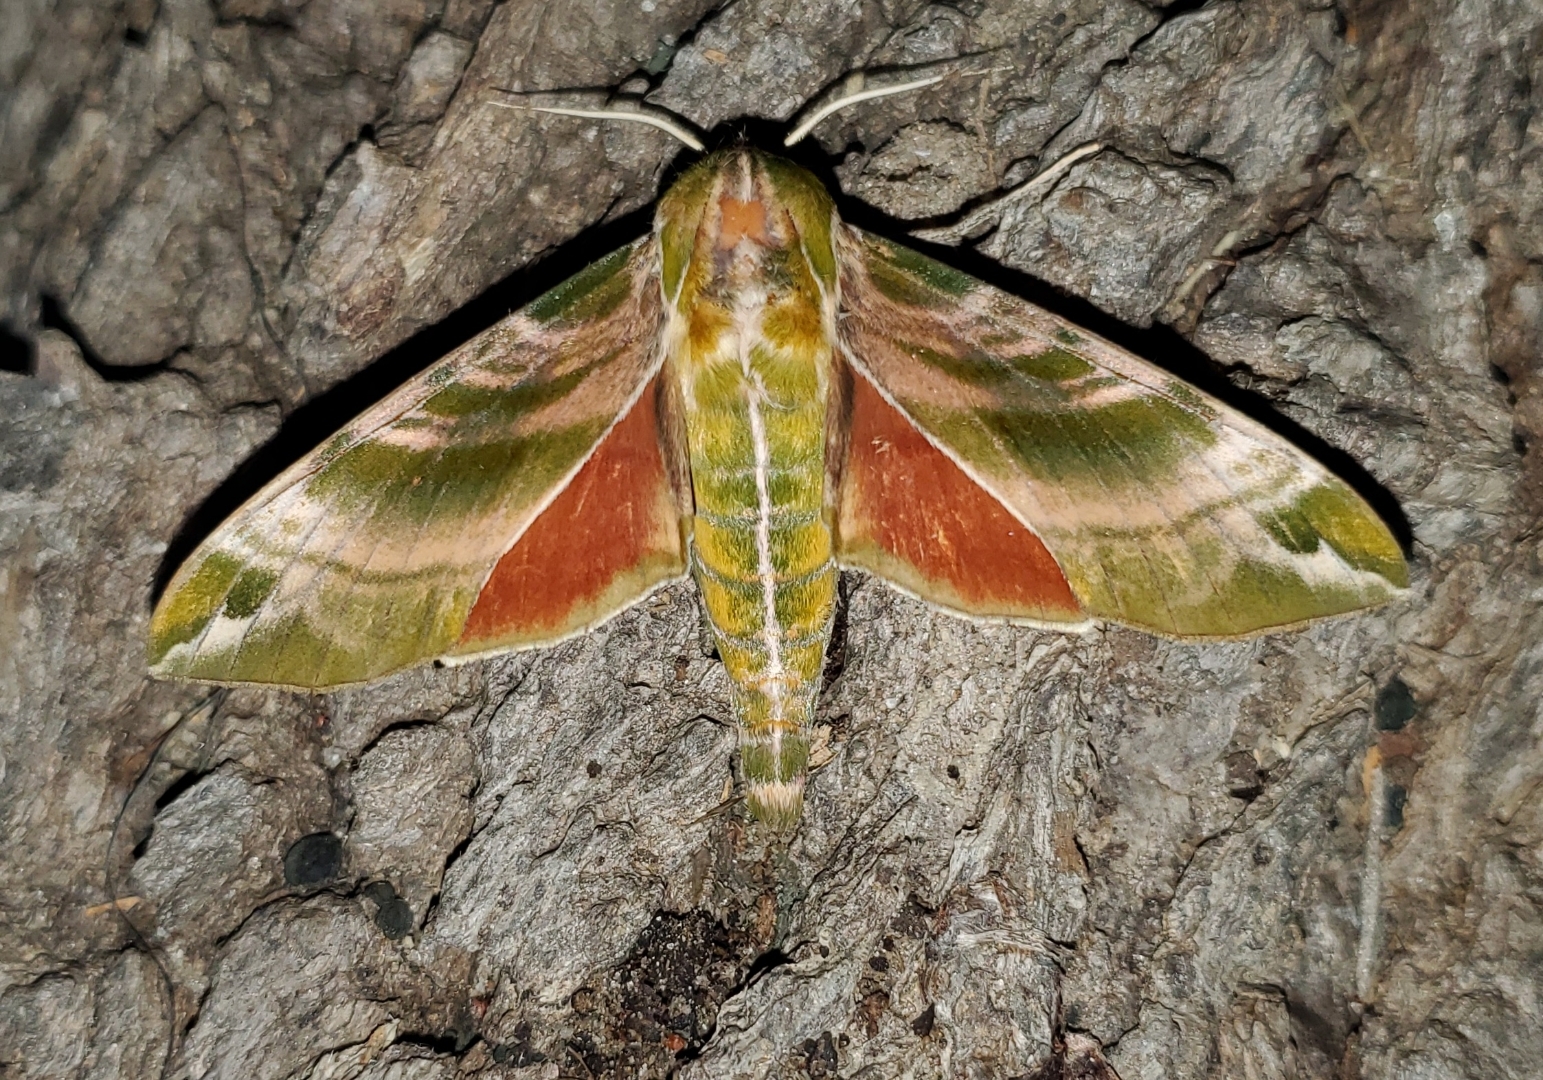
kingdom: Animalia
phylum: Arthropoda
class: Insecta
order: Lepidoptera
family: Sphingidae
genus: Darapsa
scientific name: Darapsa versicolor
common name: Hydrangea sphinx
